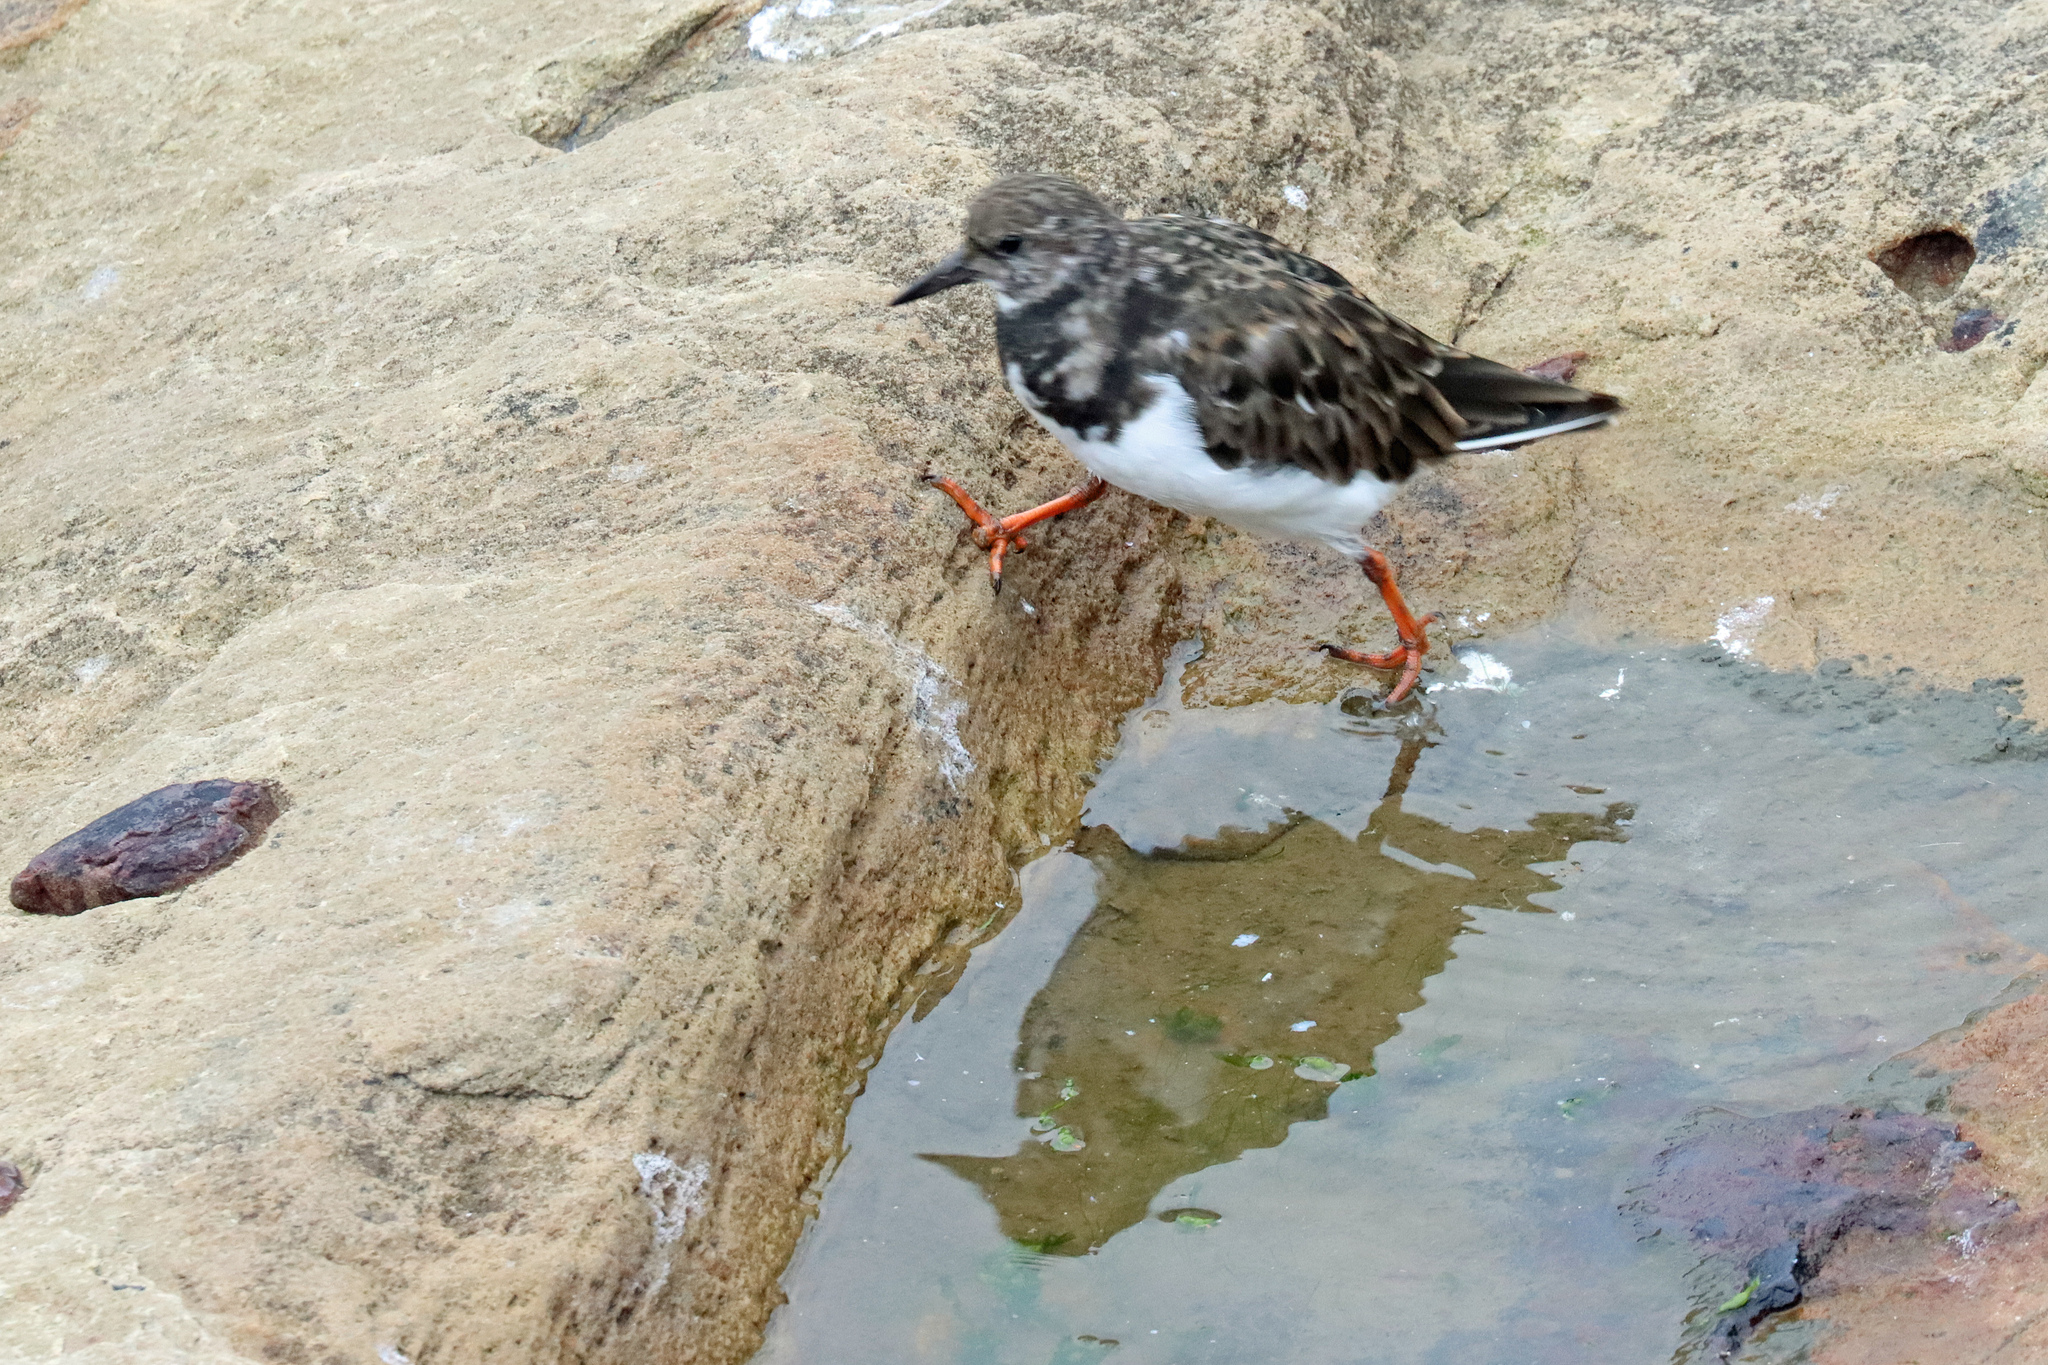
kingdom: Animalia
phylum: Chordata
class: Aves
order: Charadriiformes
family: Scolopacidae
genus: Arenaria
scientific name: Arenaria interpres
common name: Ruddy turnstone
